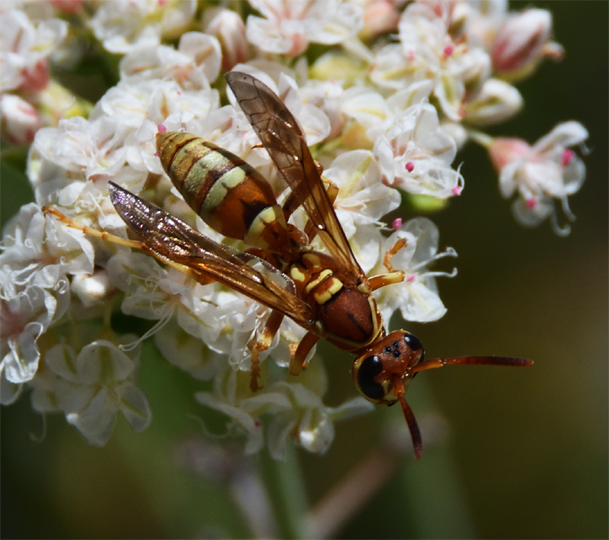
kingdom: Animalia
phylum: Arthropoda
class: Insecta
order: Hymenoptera
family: Eumenidae
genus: Polistes
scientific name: Polistes dorsalis
